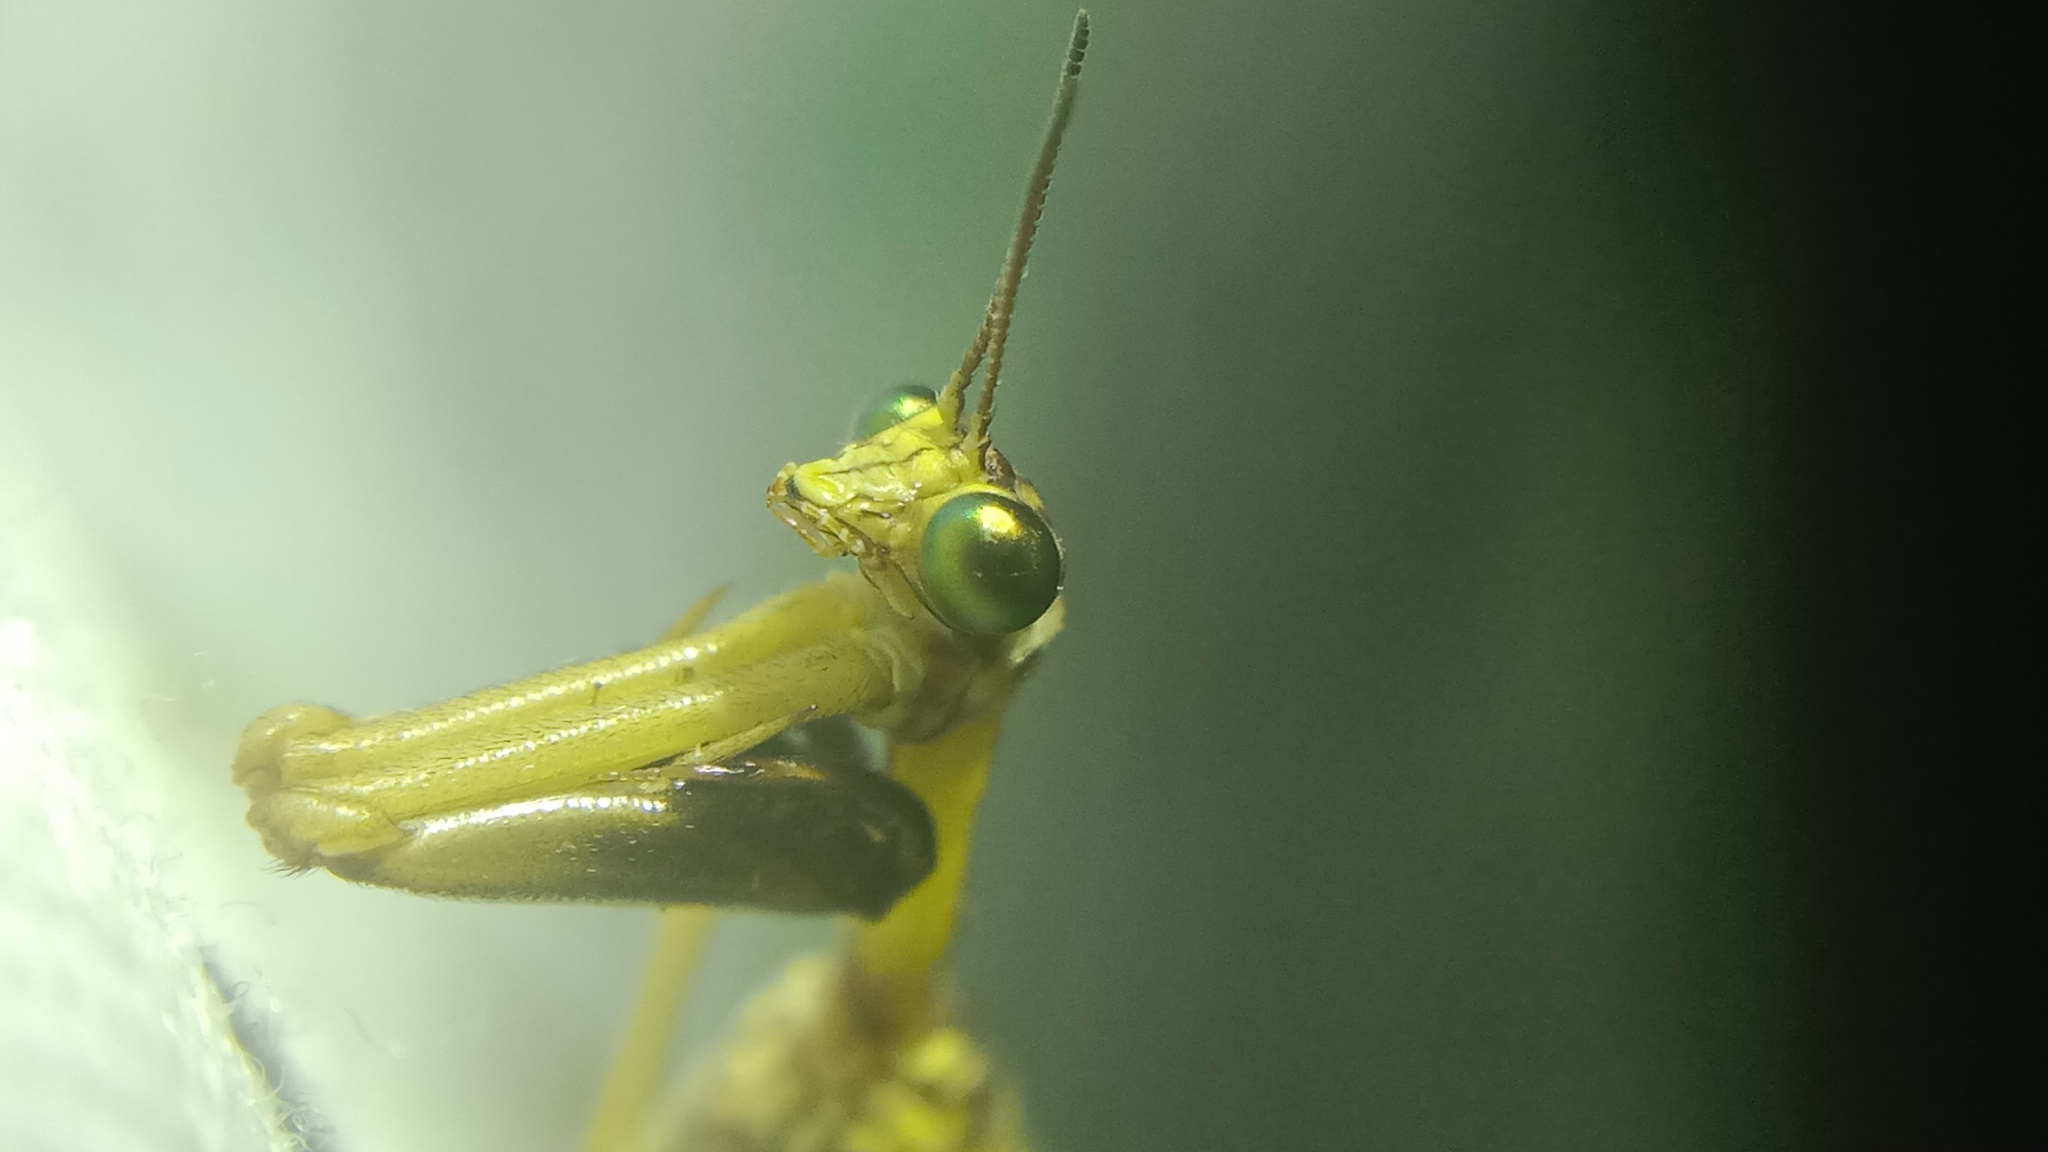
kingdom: Animalia
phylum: Arthropoda
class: Insecta
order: Neuroptera
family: Mantispidae
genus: Mantispa
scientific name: Mantispa styriaca
